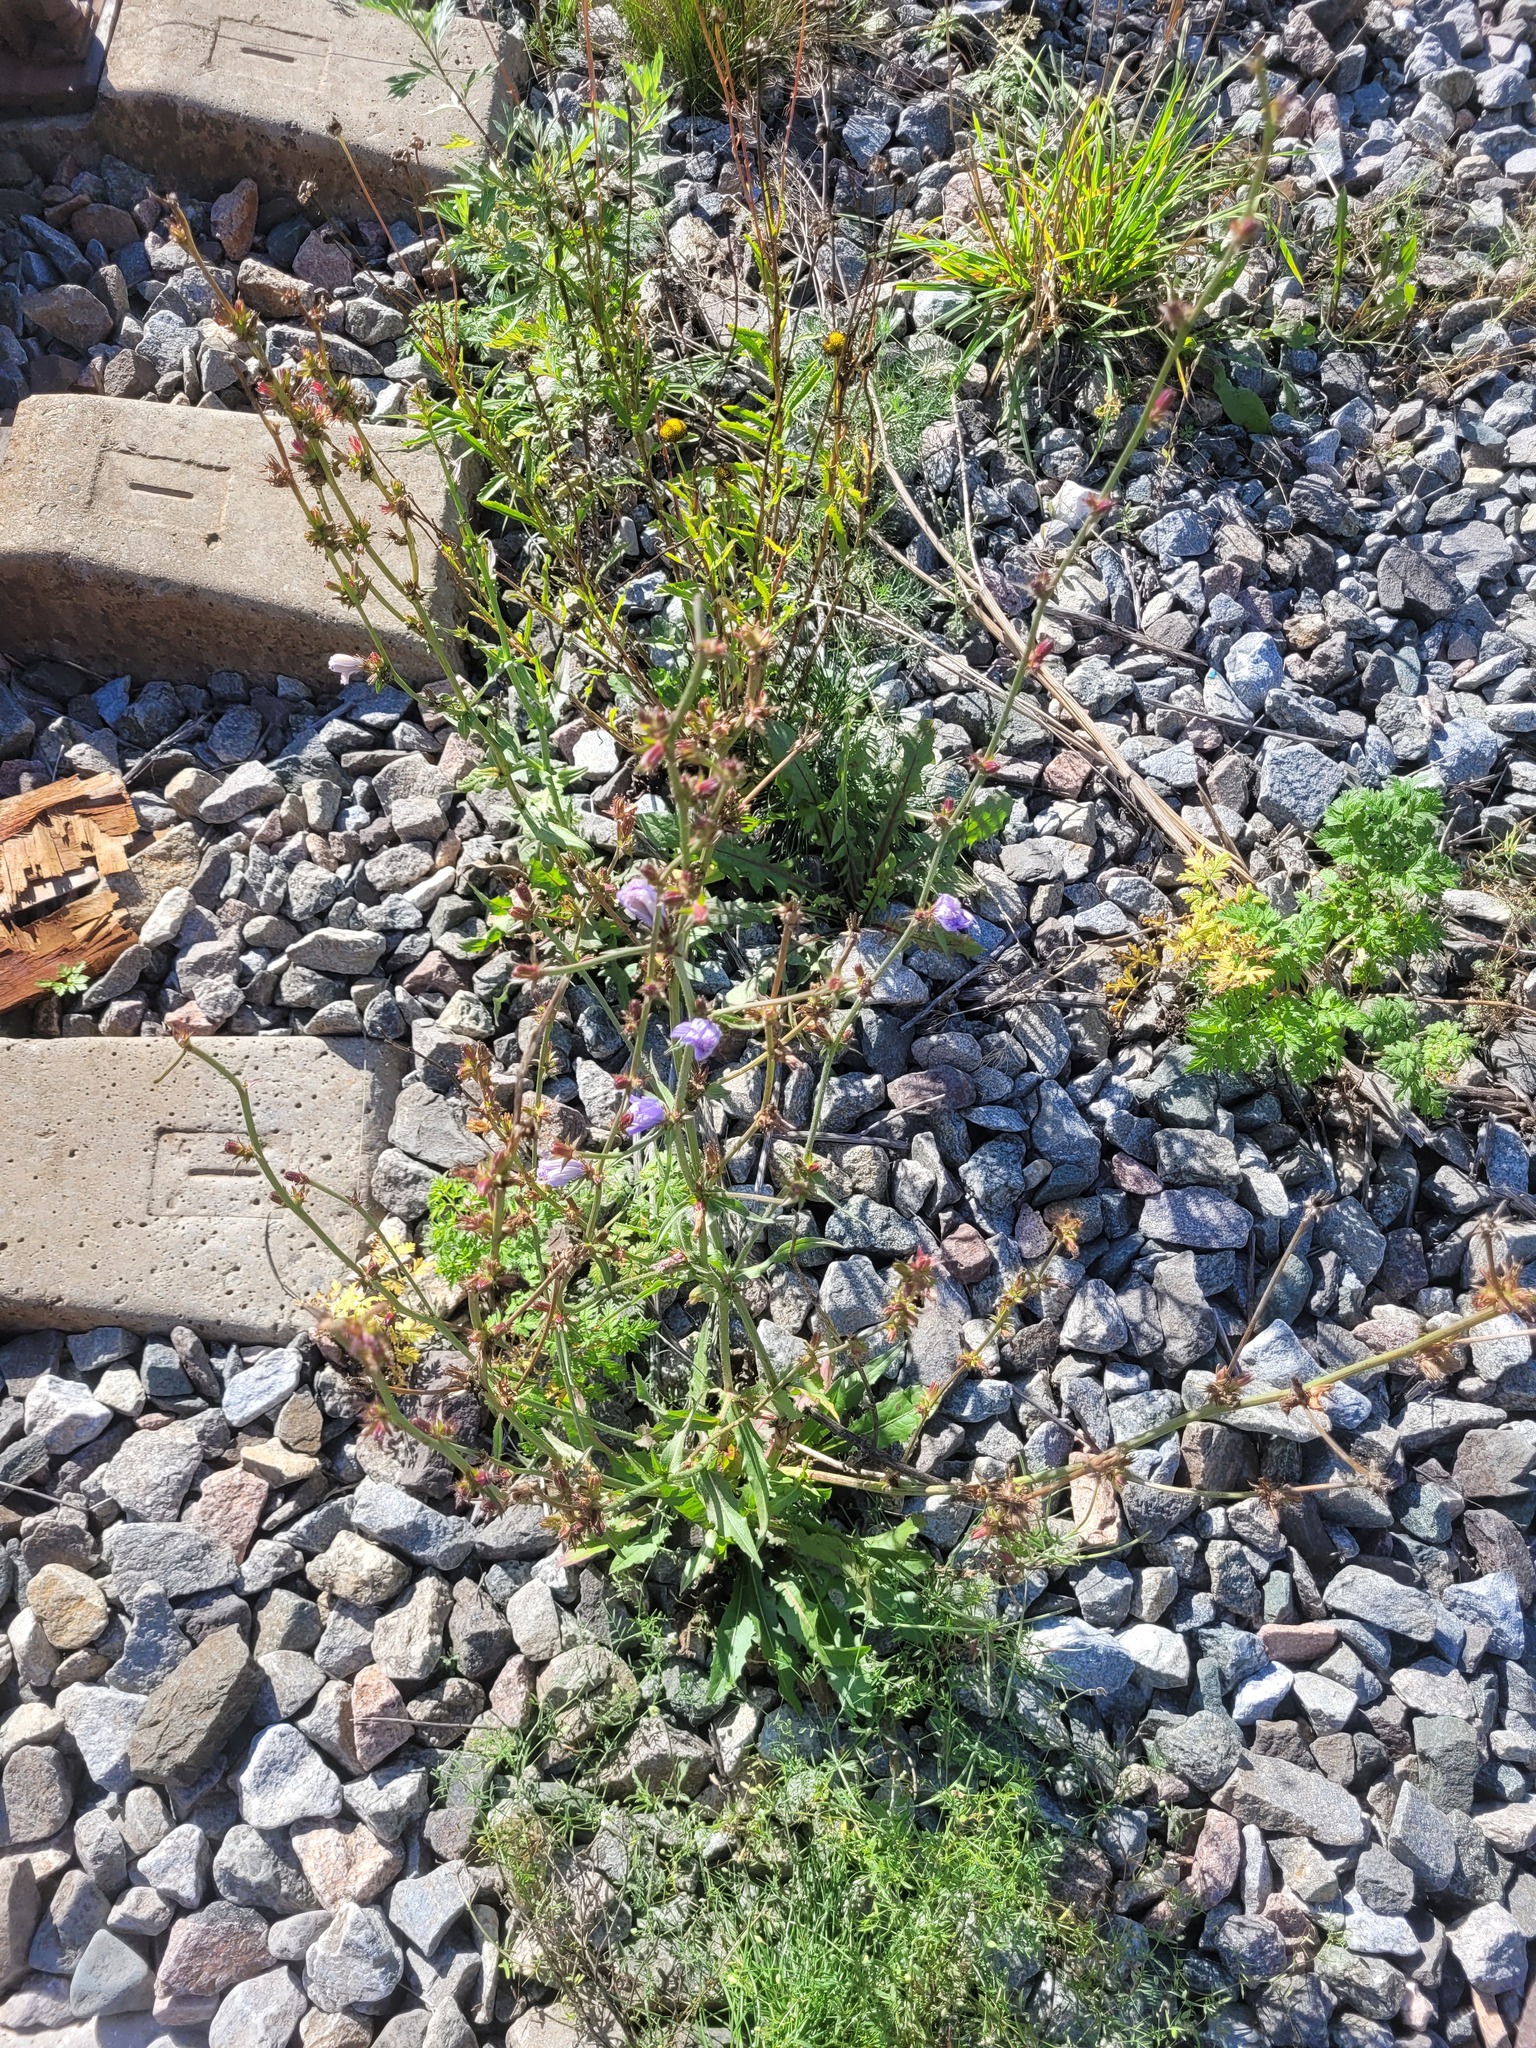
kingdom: Plantae
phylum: Tracheophyta
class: Magnoliopsida
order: Asterales
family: Asteraceae
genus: Cichorium
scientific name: Cichorium intybus
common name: Chicory
